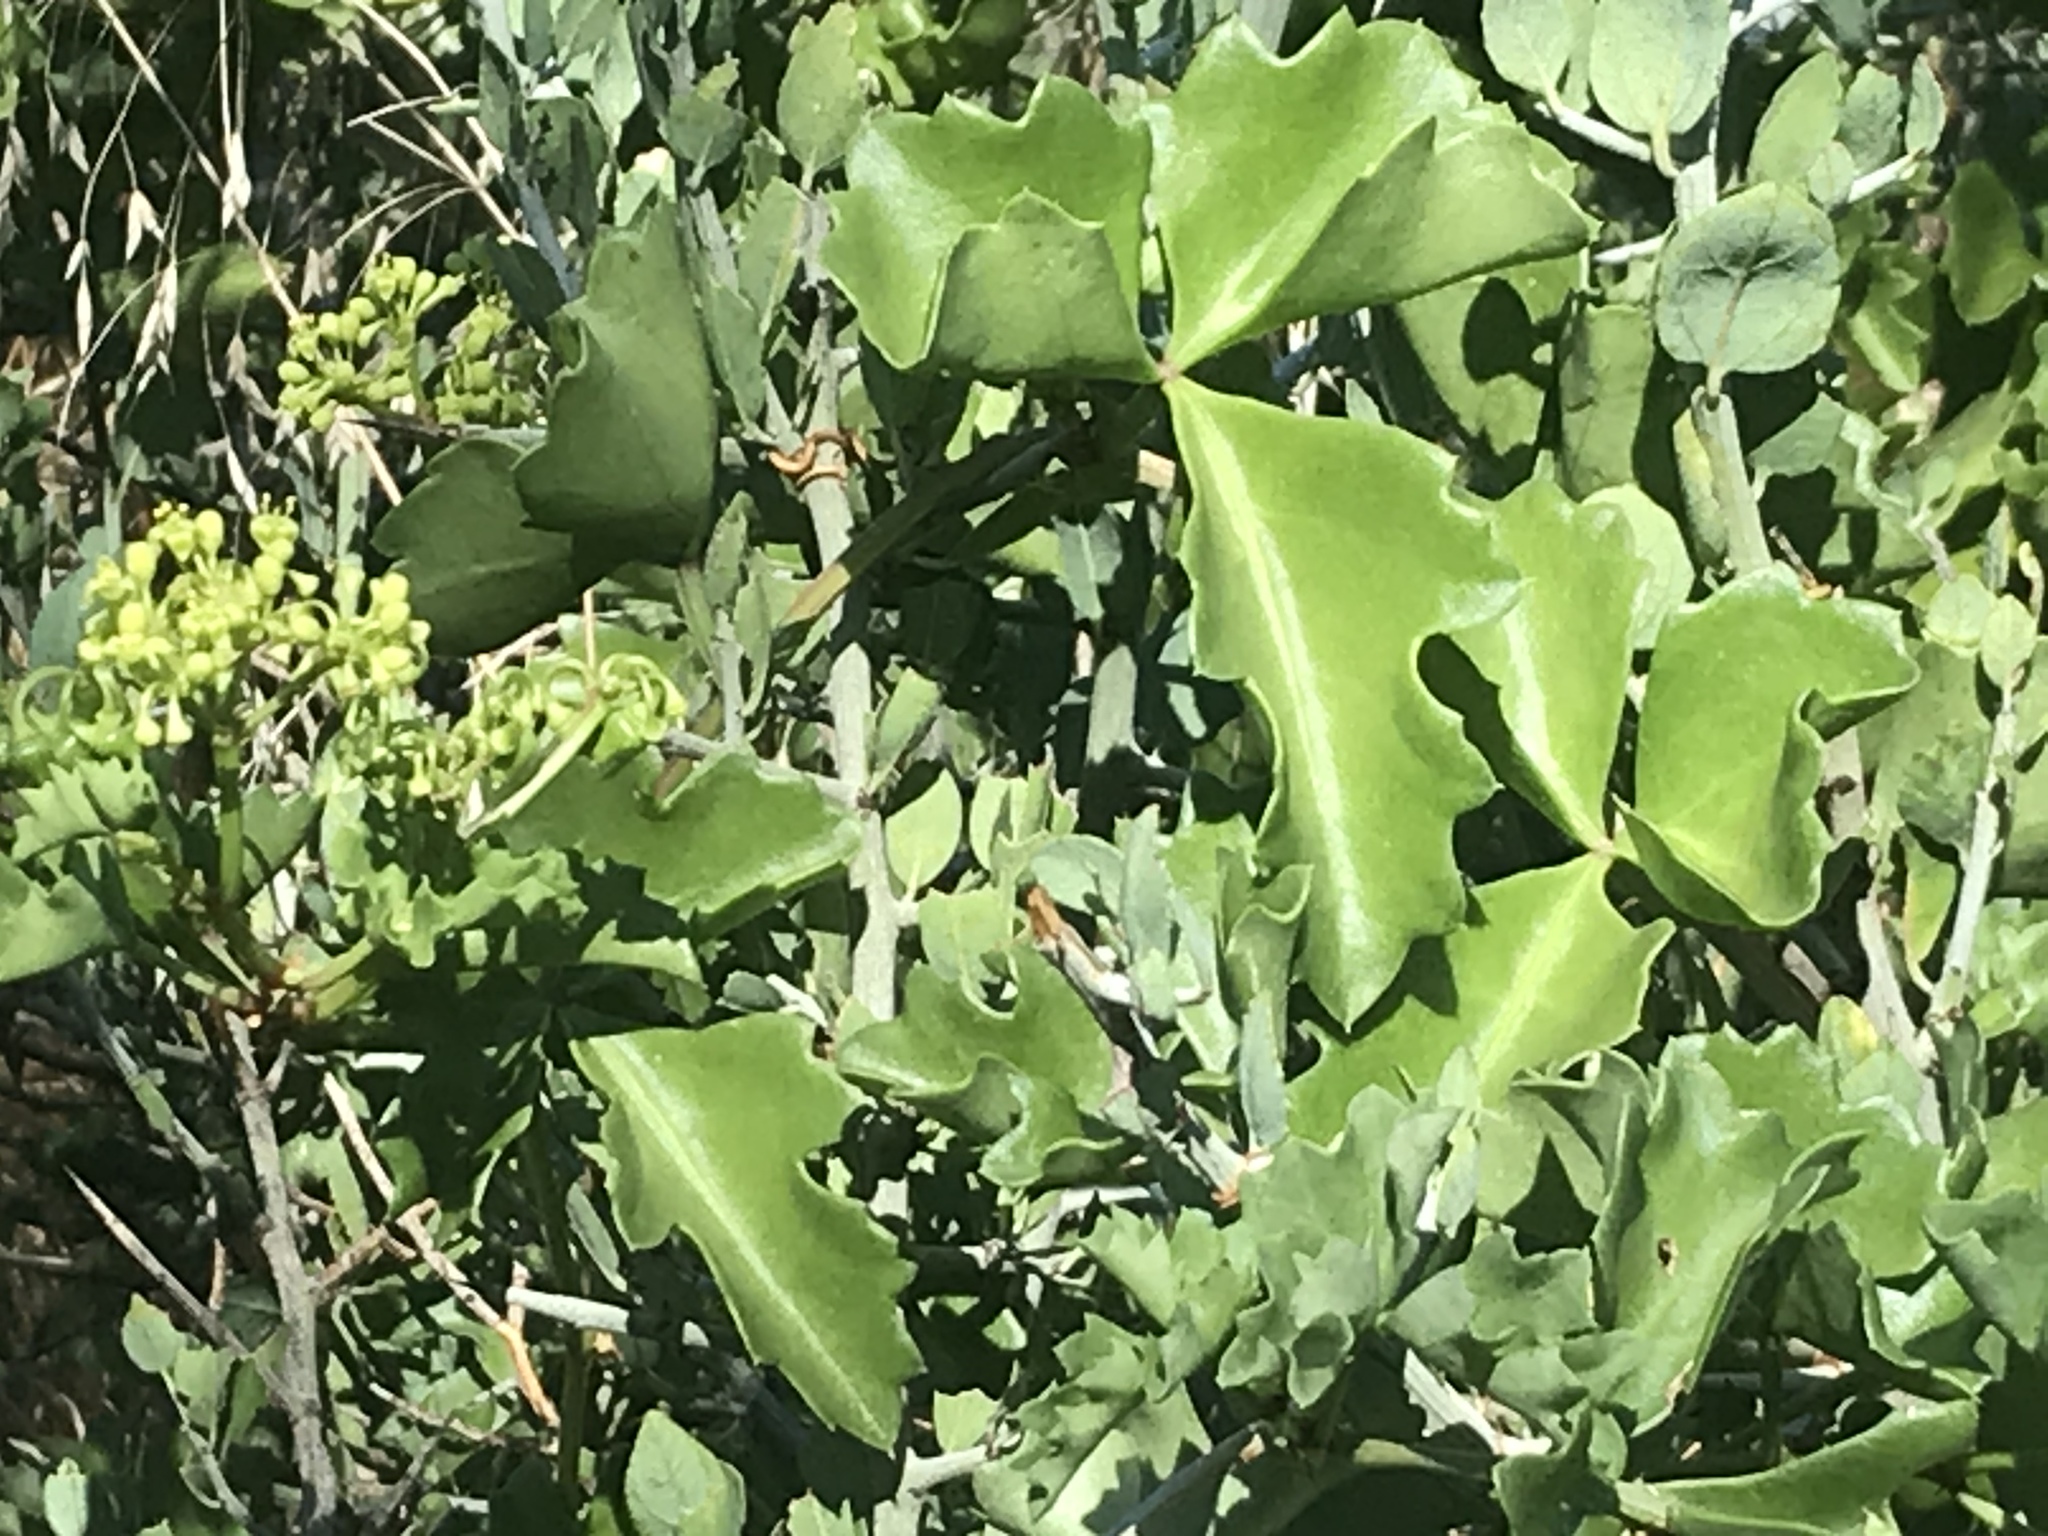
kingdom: Plantae
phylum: Tracheophyta
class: Magnoliopsida
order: Vitales
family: Vitaceae
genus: Cissus
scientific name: Cissus trifoliata
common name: Vine-sorrel
